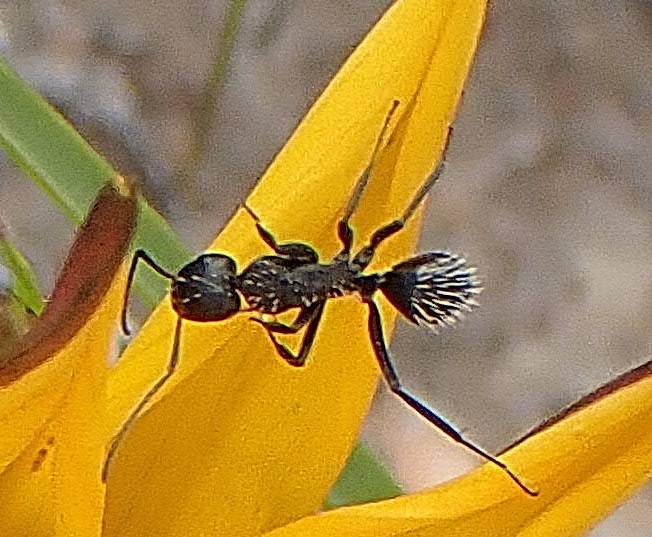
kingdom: Animalia
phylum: Arthropoda
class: Insecta
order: Hymenoptera
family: Formicidae
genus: Camponotus
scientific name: Camponotus niveosetosus
